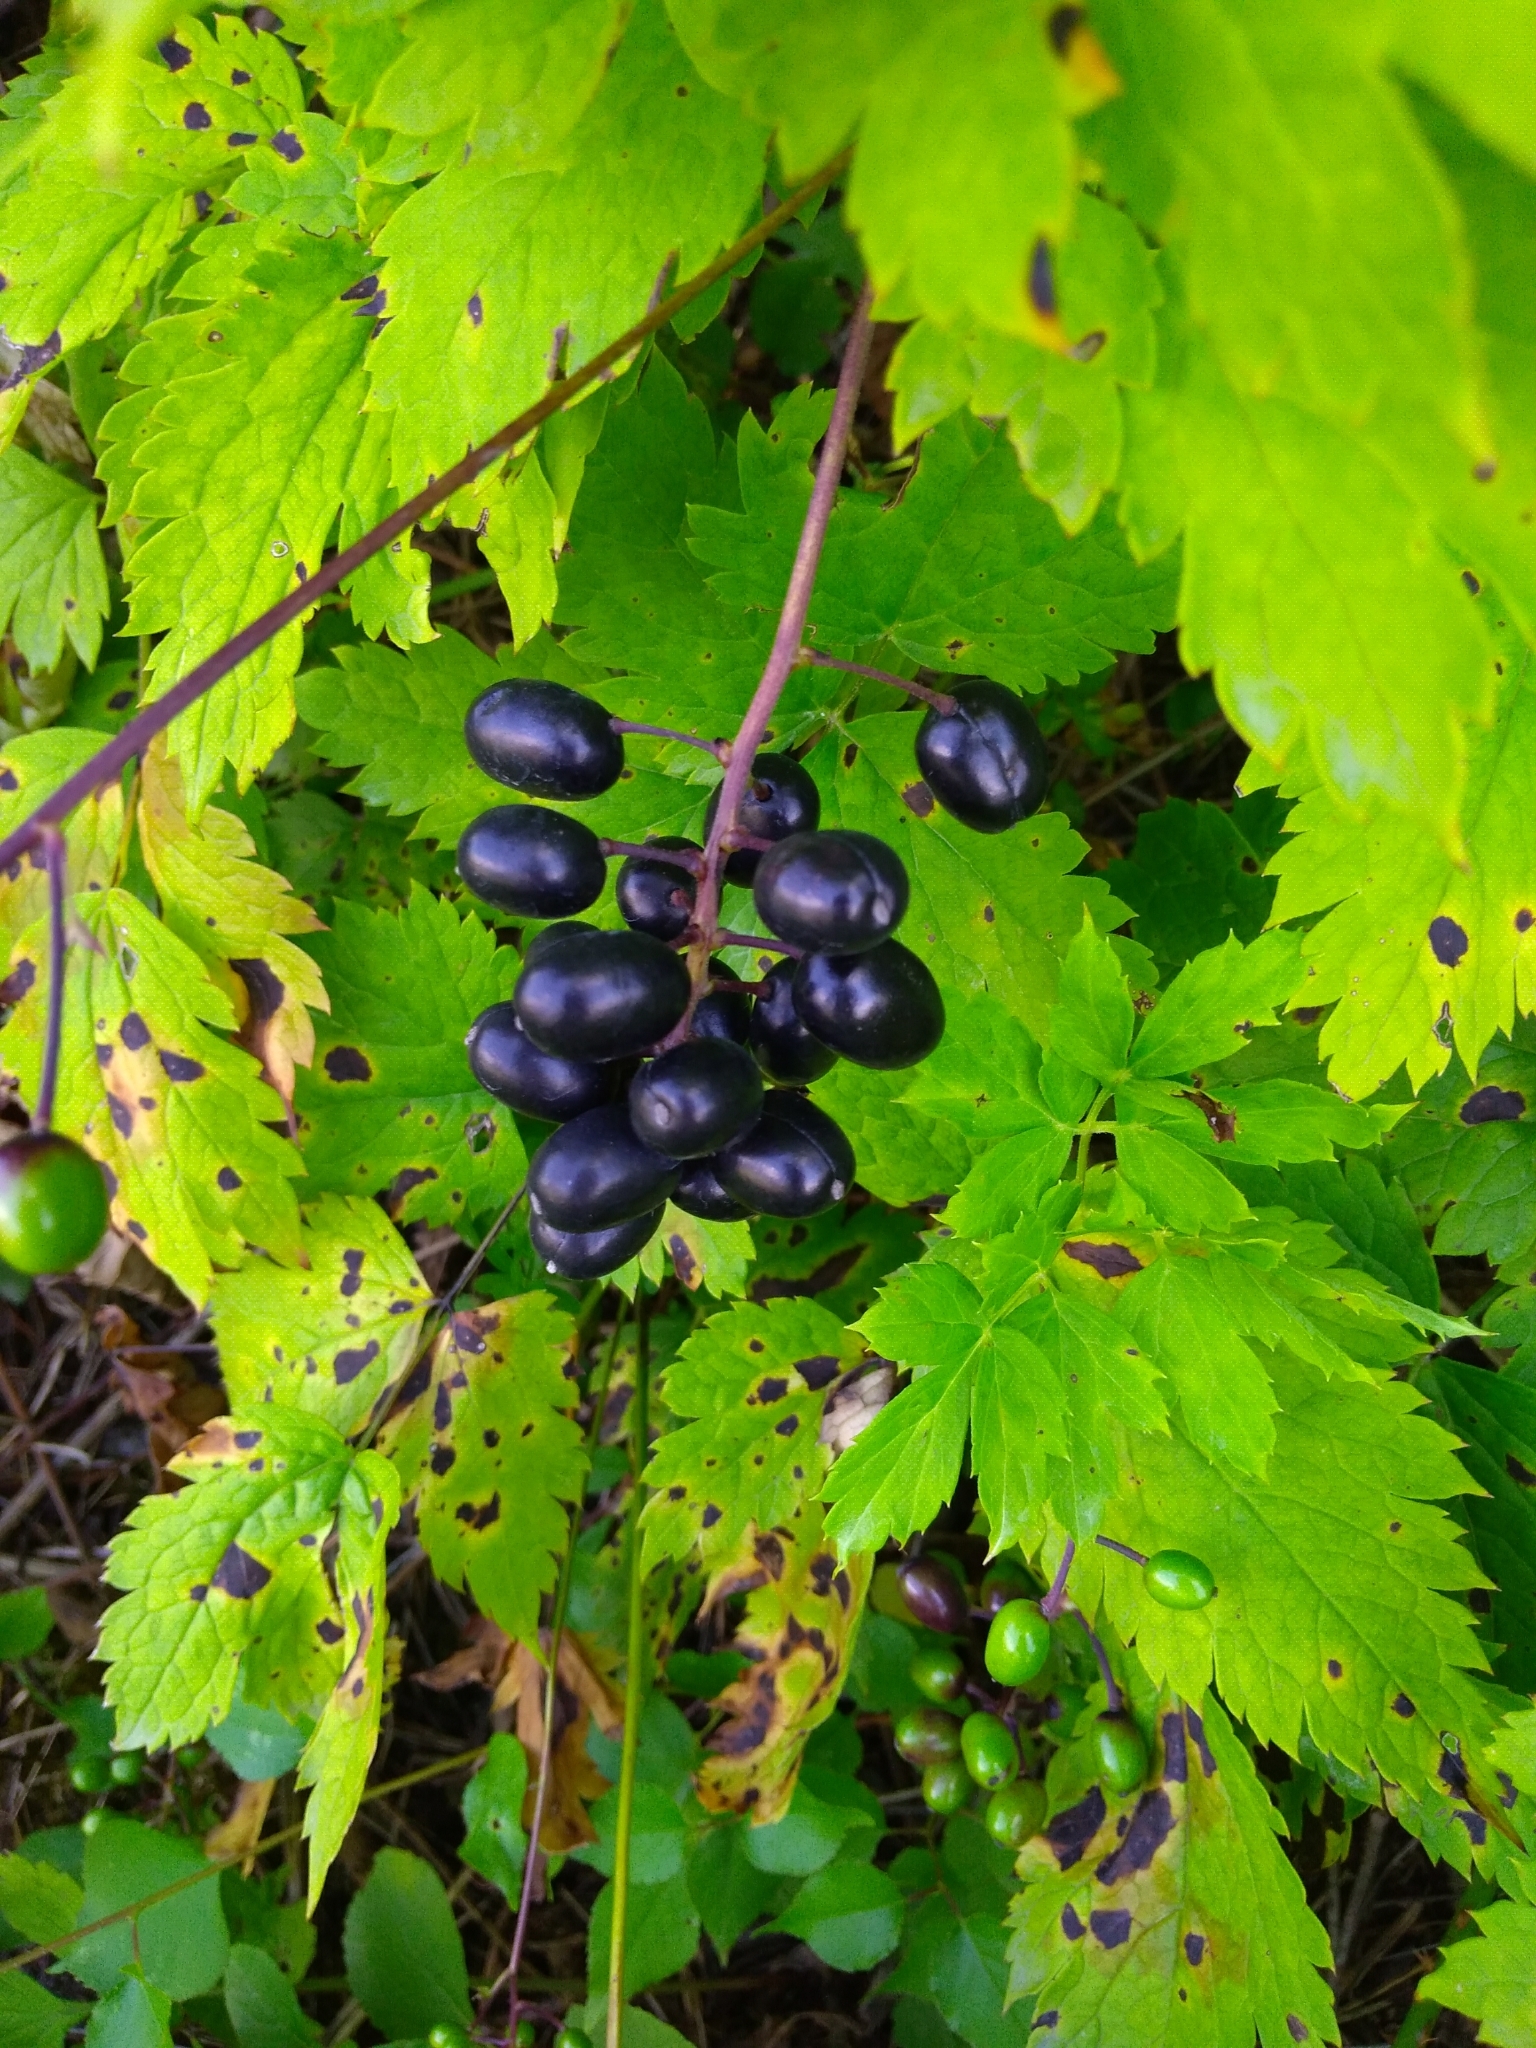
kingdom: Plantae
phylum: Tracheophyta
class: Magnoliopsida
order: Ranunculales
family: Ranunculaceae
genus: Actaea
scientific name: Actaea spicata
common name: Baneberry
